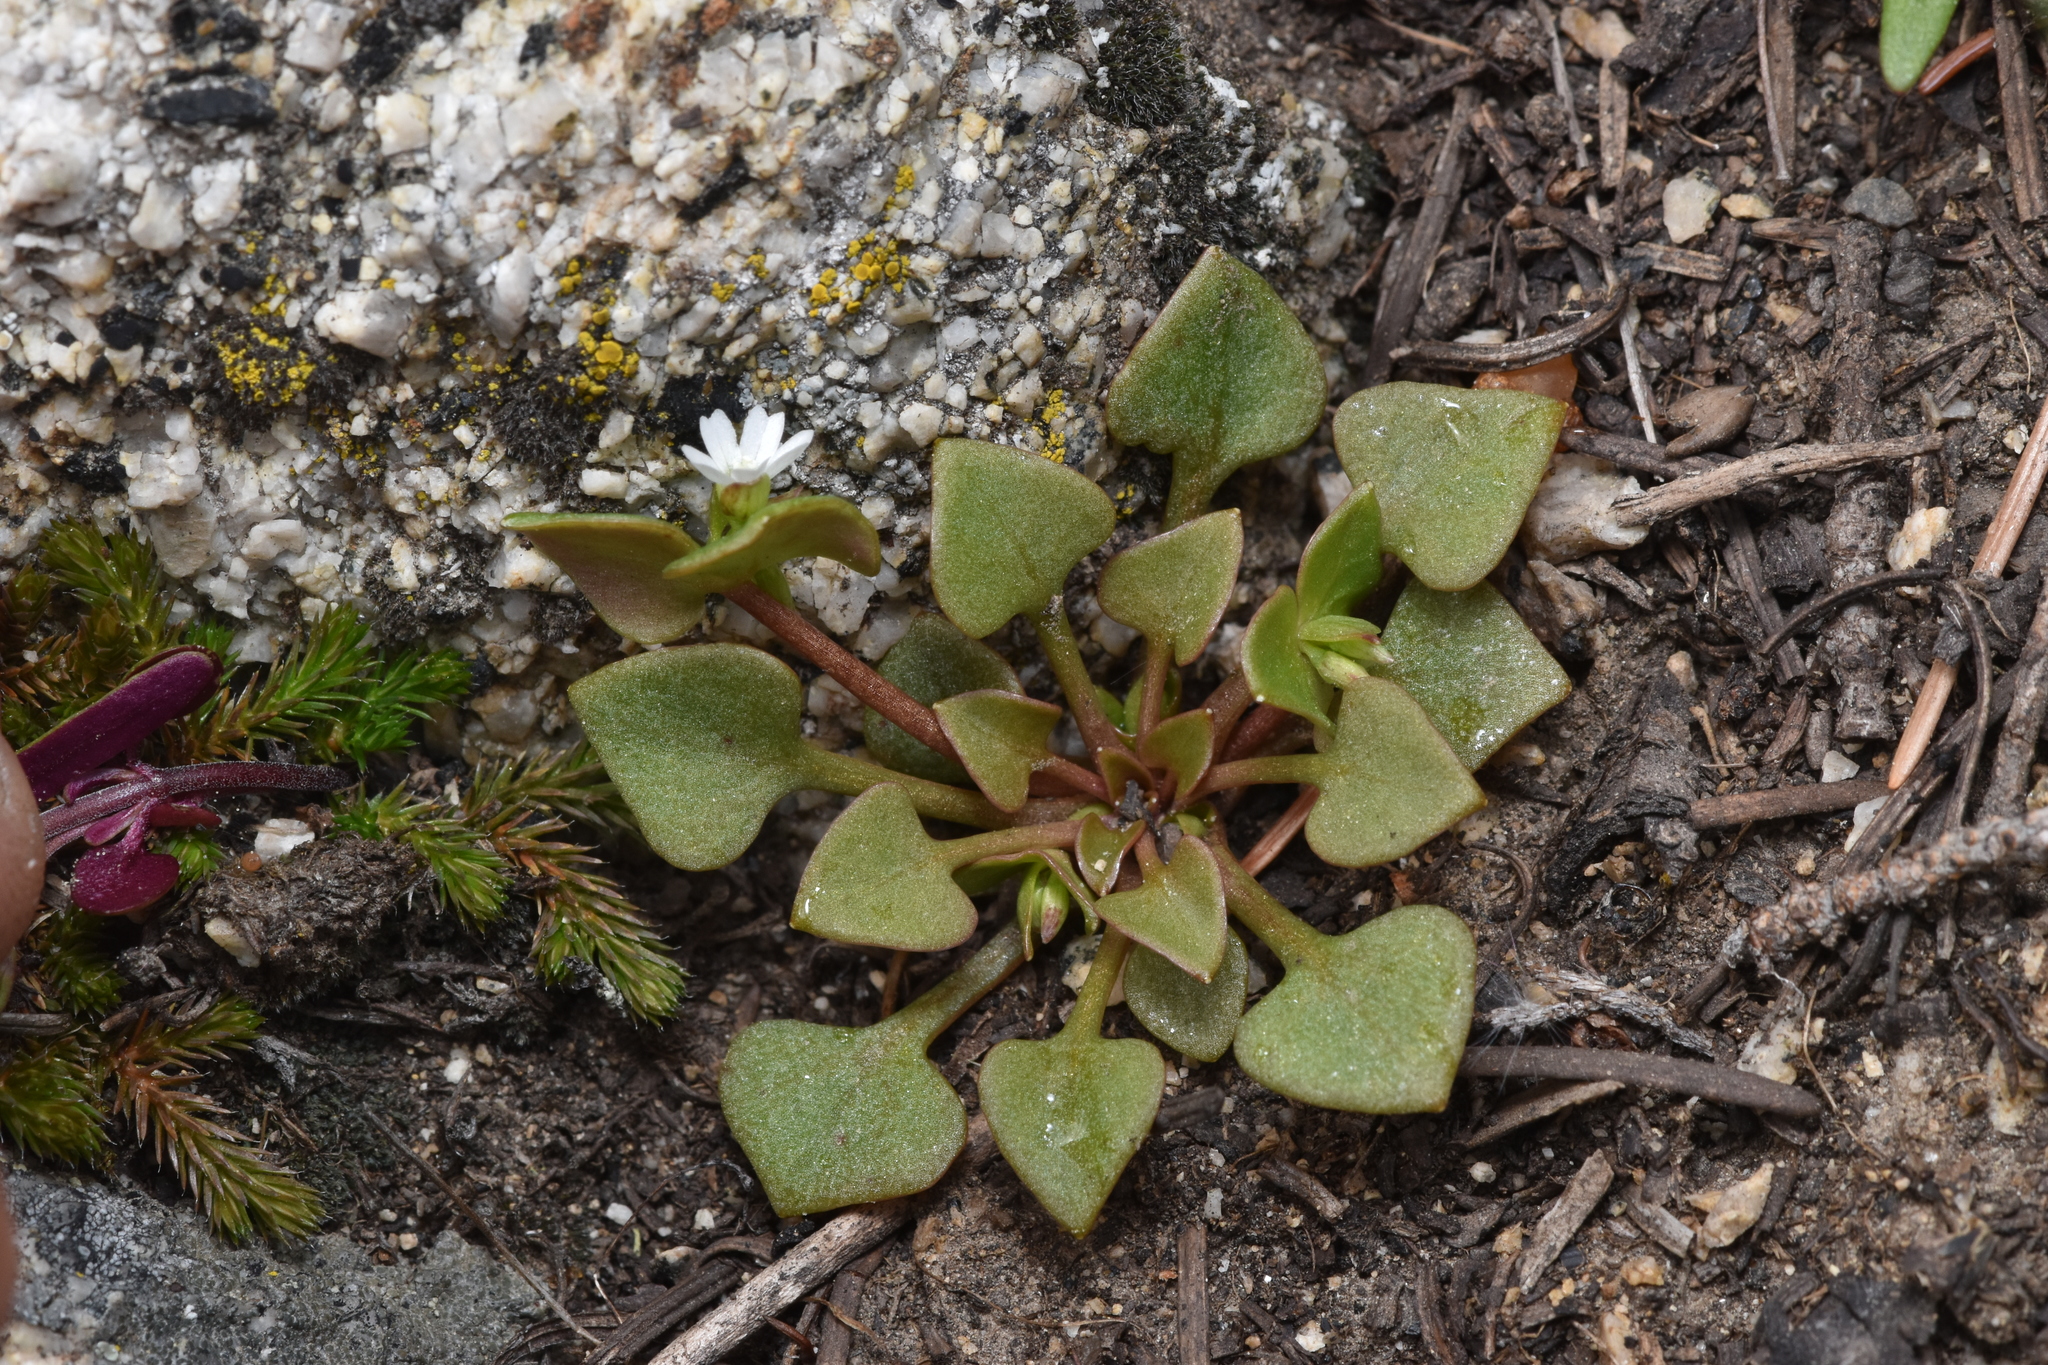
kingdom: Plantae
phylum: Tracheophyta
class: Magnoliopsida
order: Caryophyllales
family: Montiaceae
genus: Claytonia
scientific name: Claytonia rubra
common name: Erubescent miner's-lettuce
